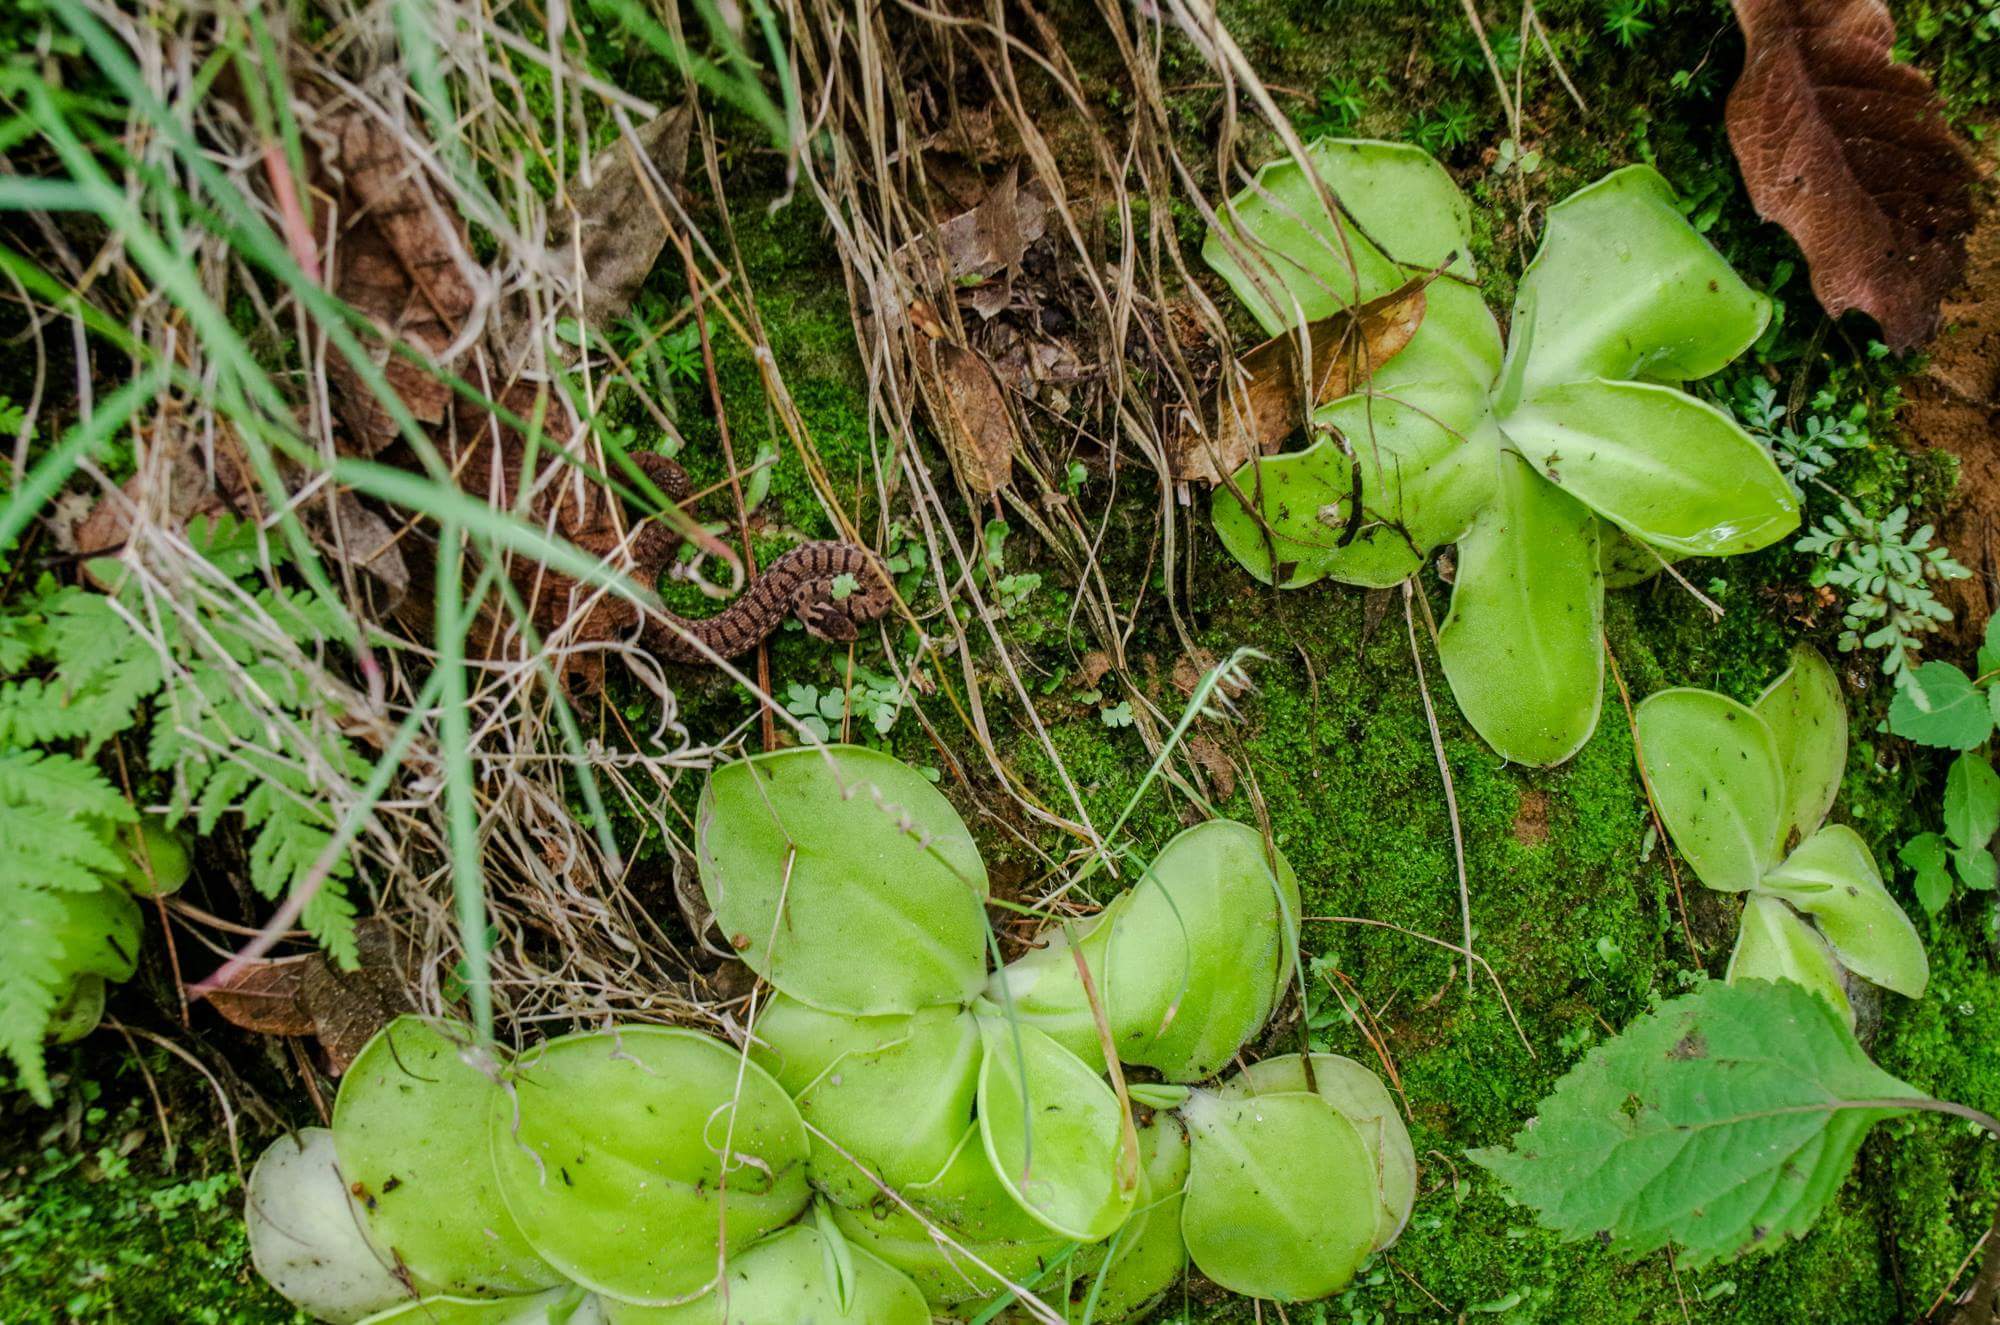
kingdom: Animalia
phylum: Chordata
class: Squamata
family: Colubridae
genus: Storeria
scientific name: Storeria storerioides
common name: Mexican brown snake
